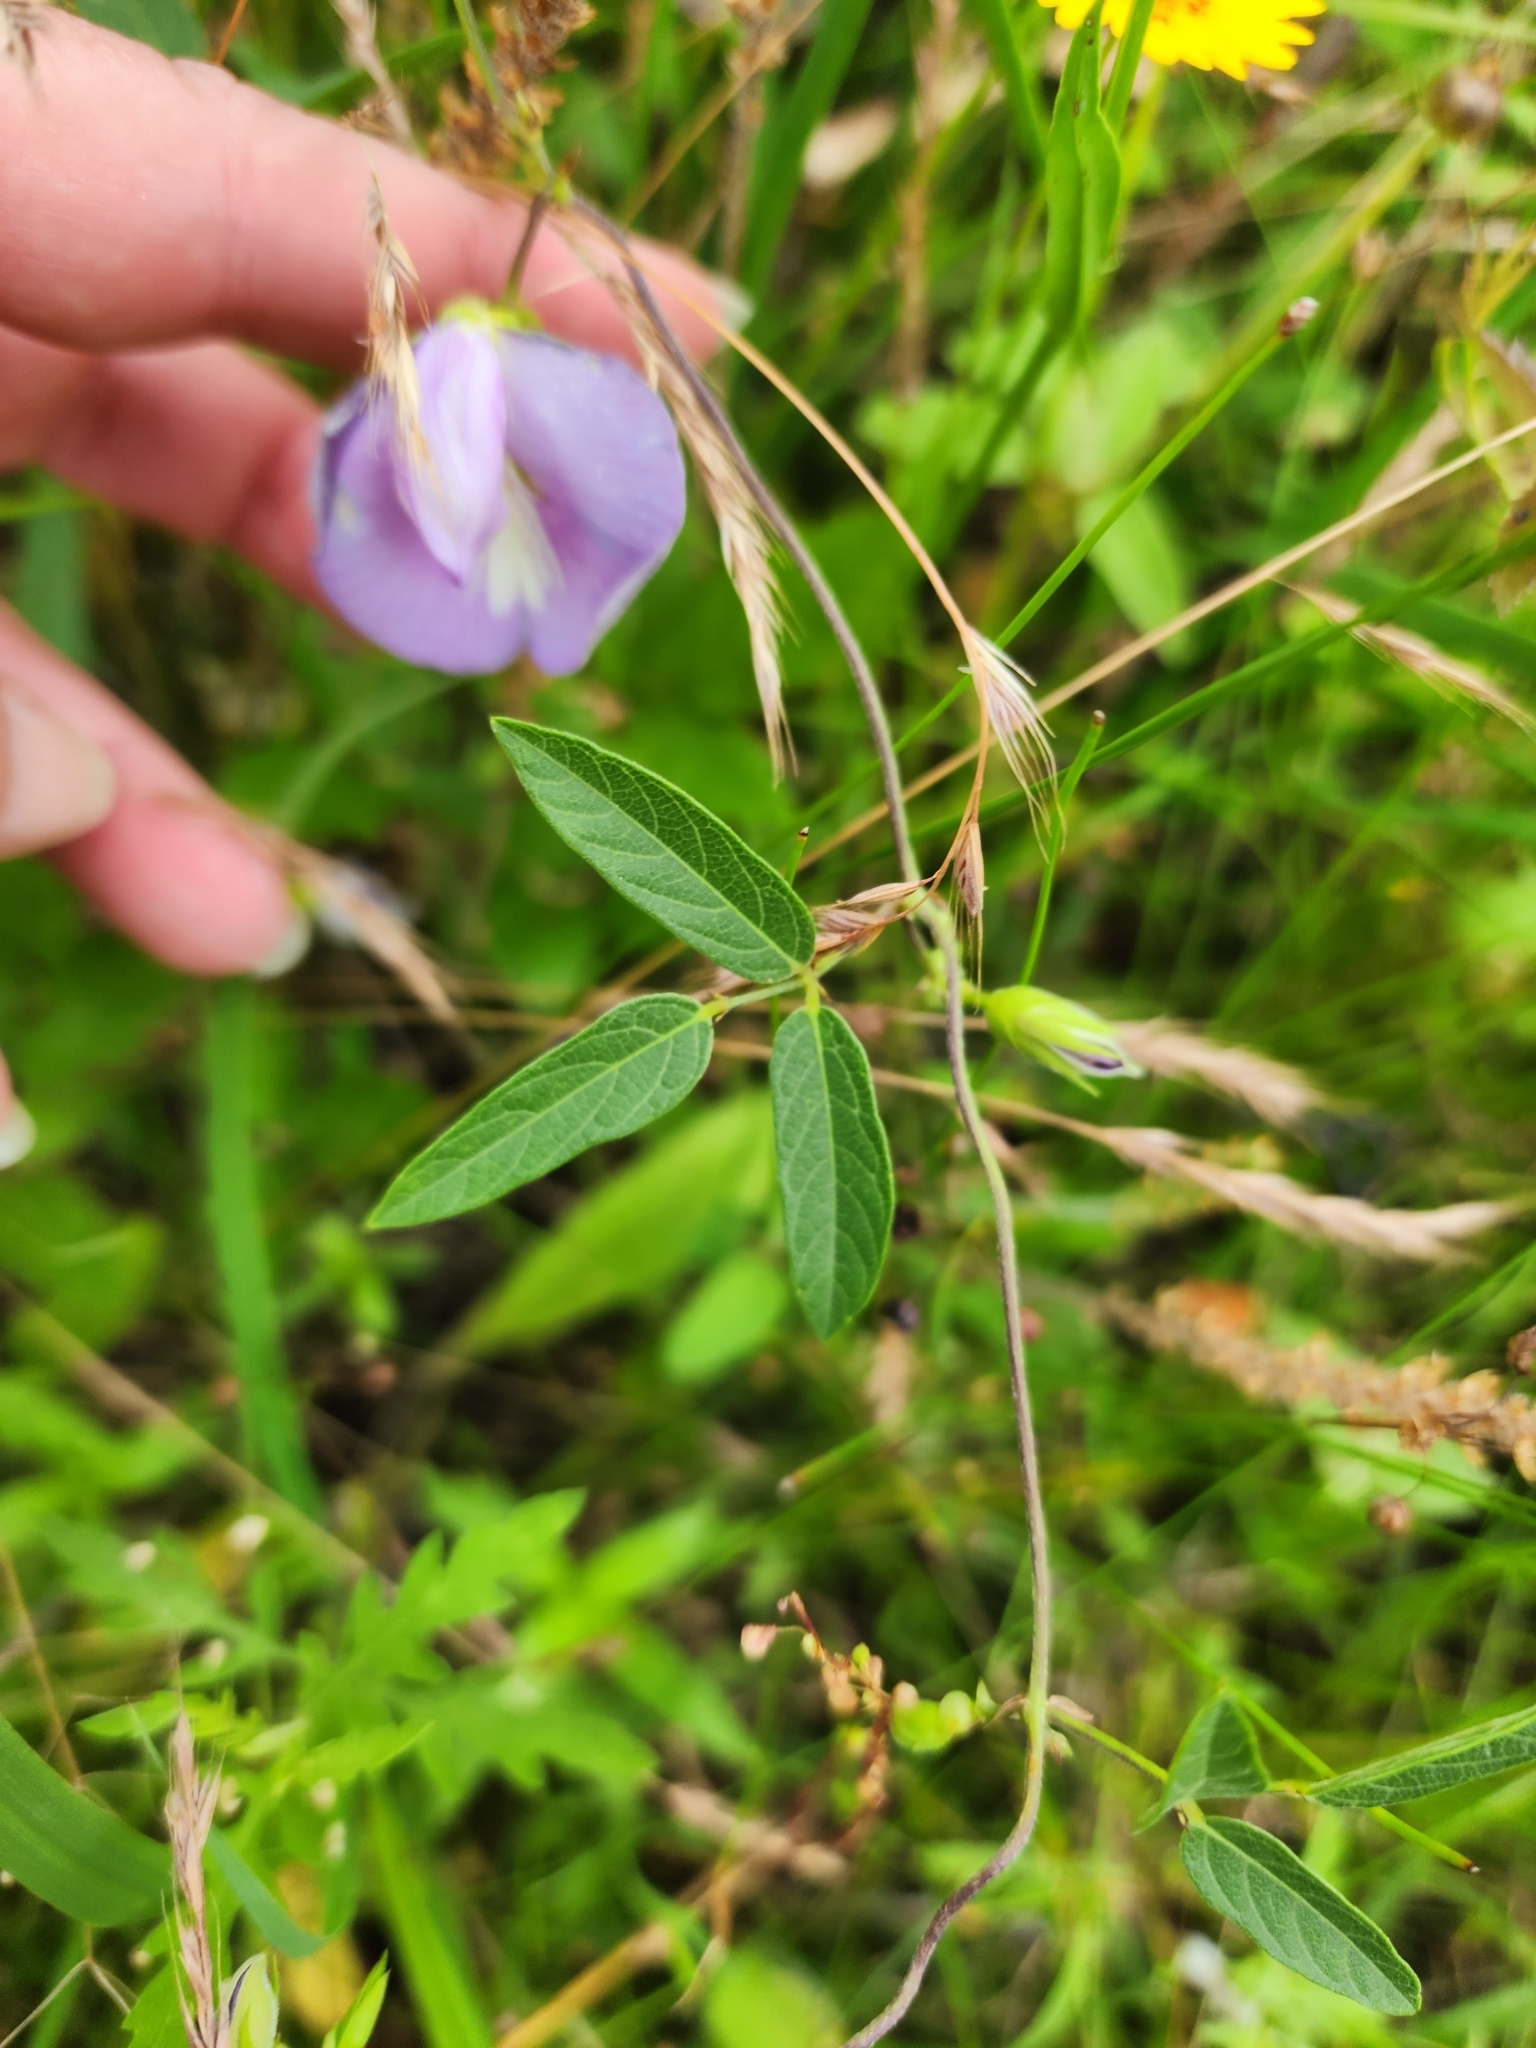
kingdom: Plantae
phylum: Tracheophyta
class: Magnoliopsida
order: Fabales
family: Fabaceae
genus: Centrosema
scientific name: Centrosema virginianum
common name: Butterfly-pea
